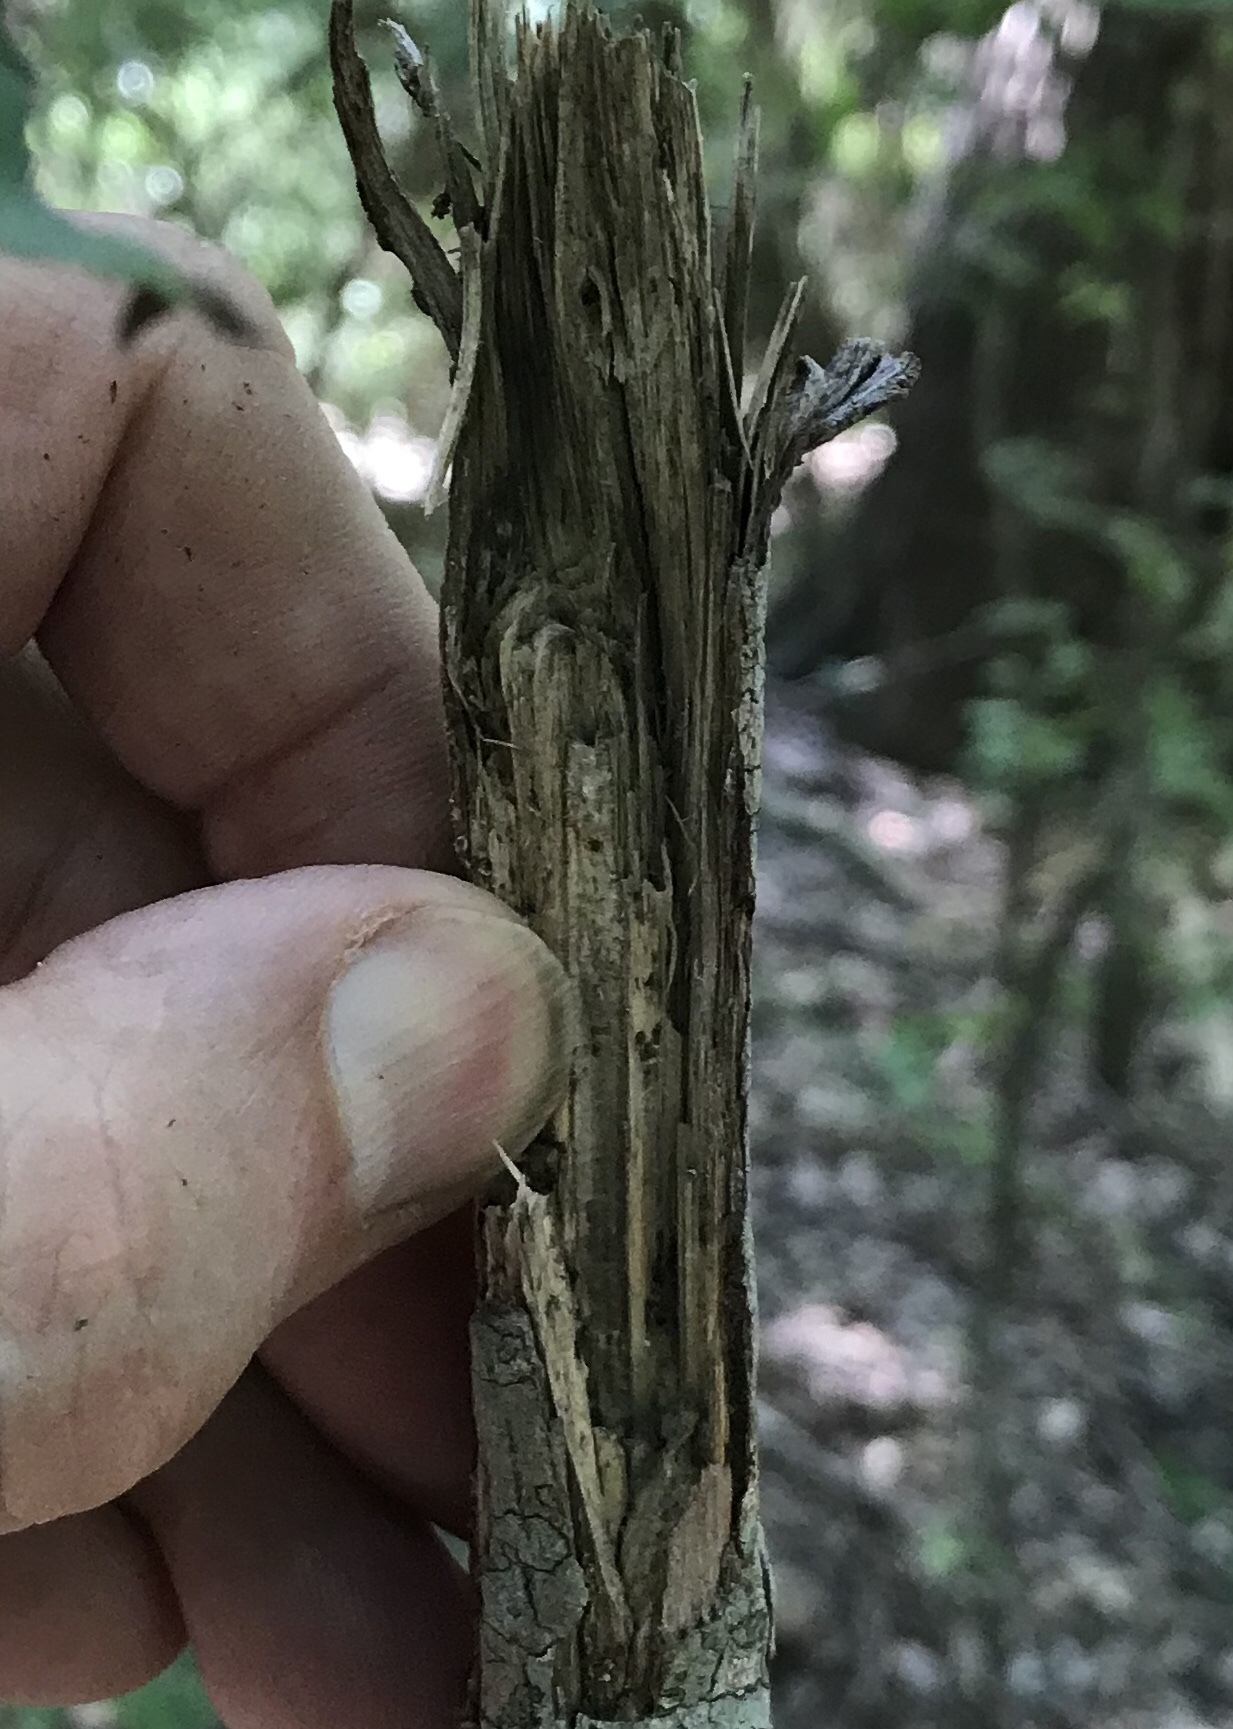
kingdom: Plantae
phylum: Tracheophyta
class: Magnoliopsida
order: Fagales
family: Juglandaceae
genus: Juglans
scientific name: Juglans major
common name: Arizona walnut
